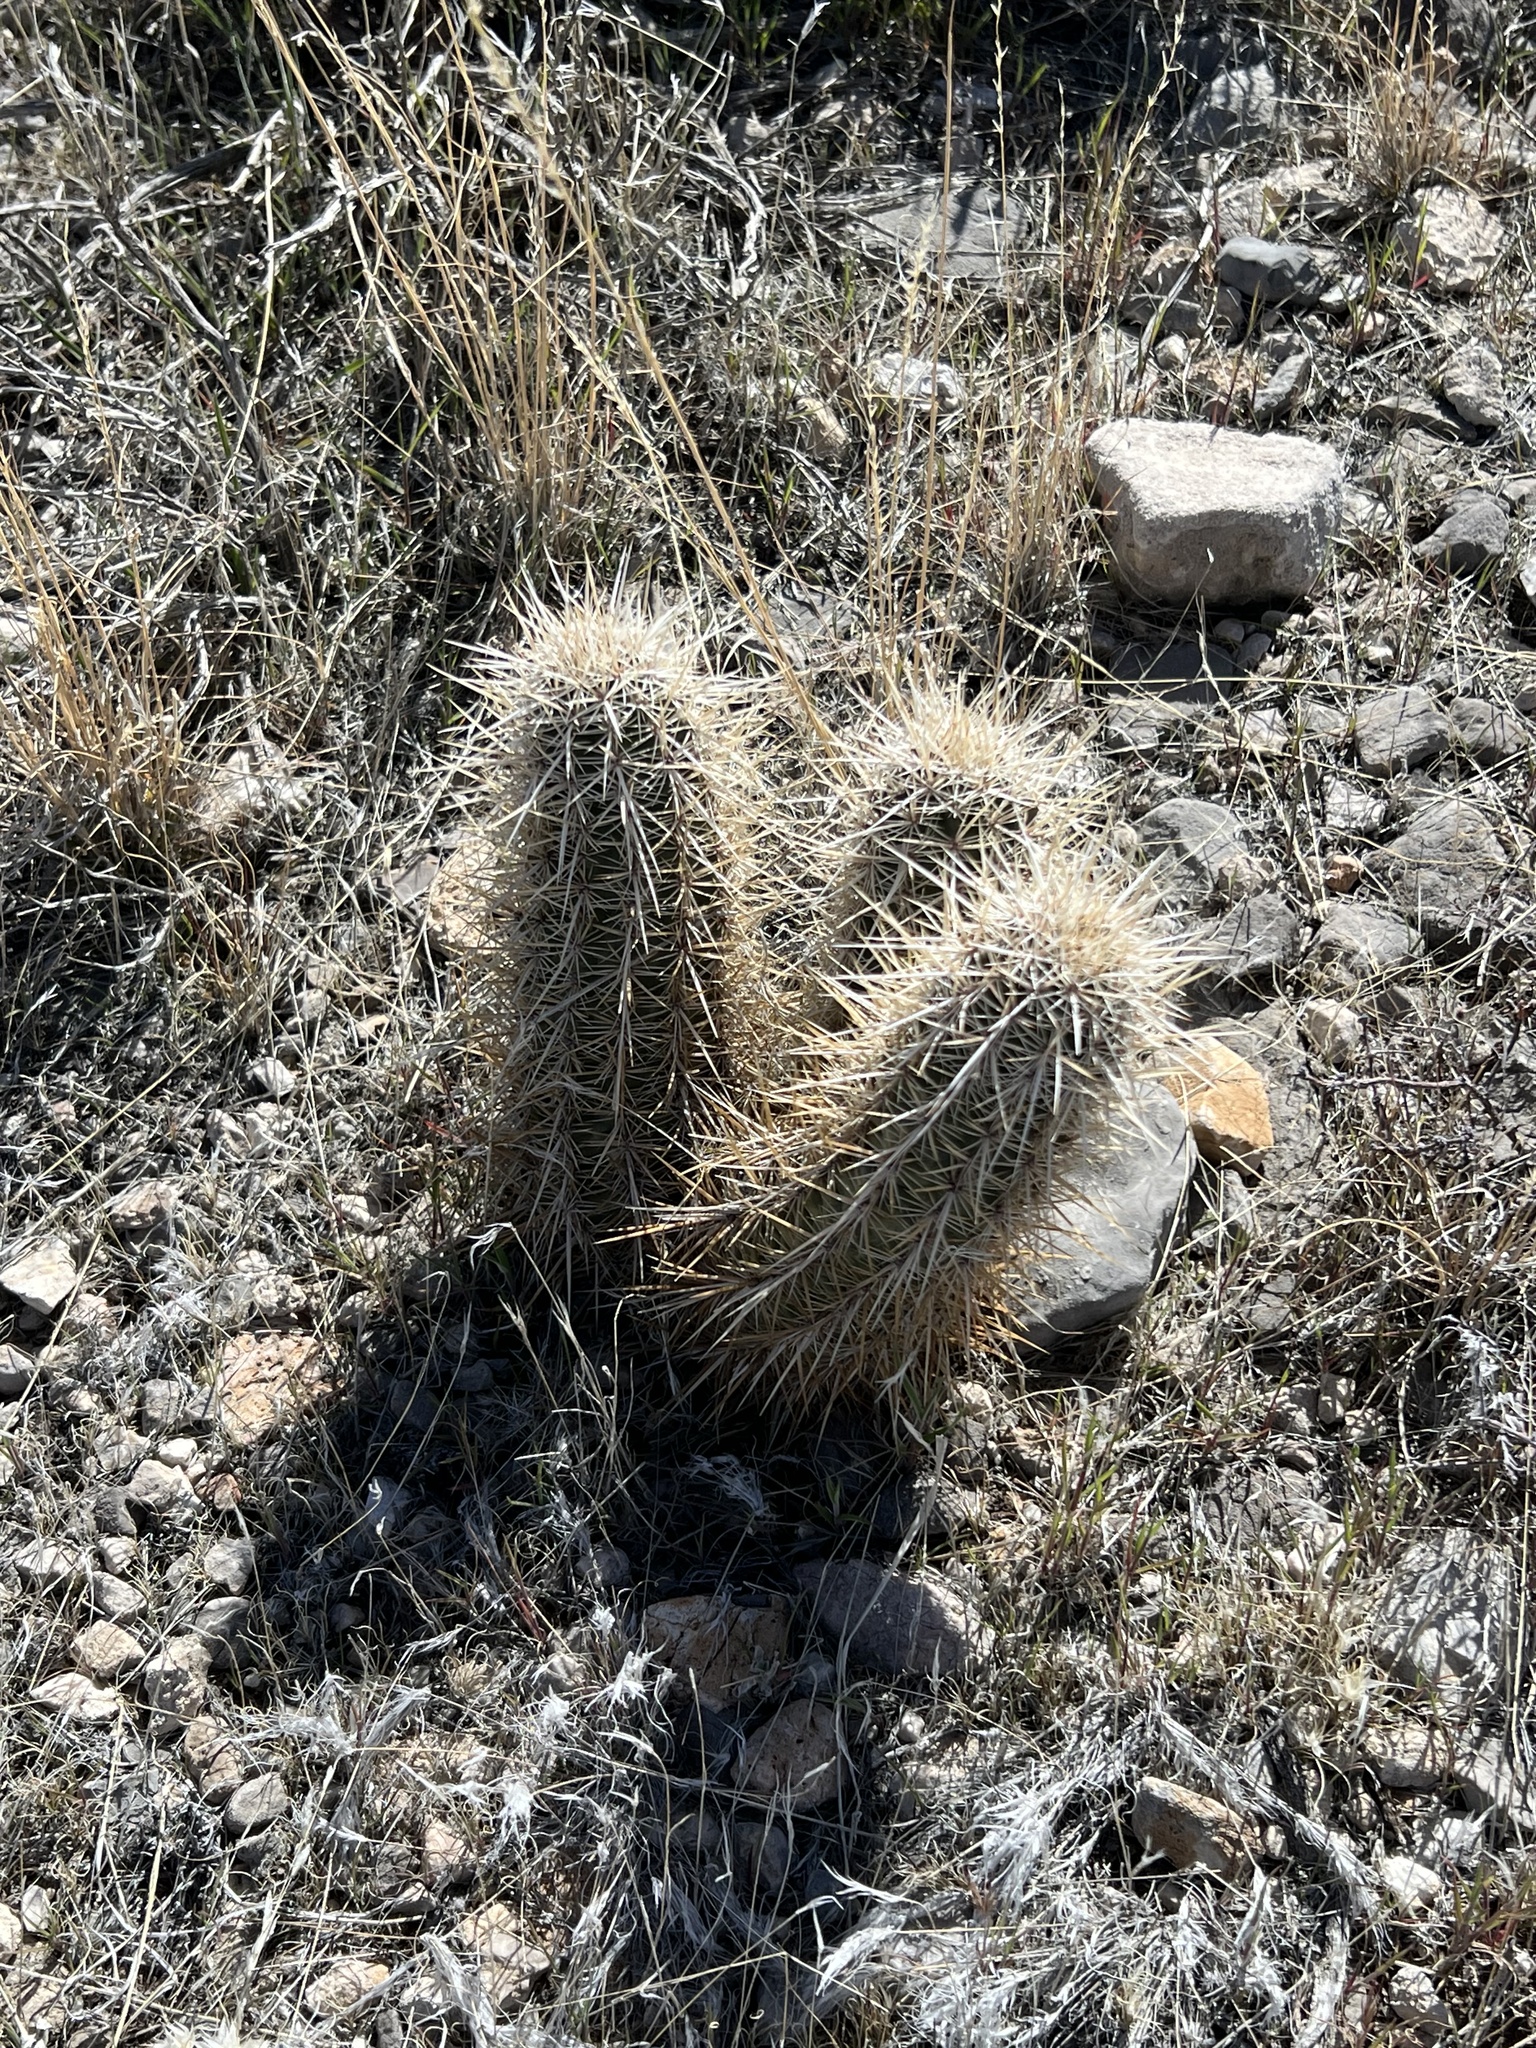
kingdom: Plantae
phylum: Tracheophyta
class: Magnoliopsida
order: Caryophyllales
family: Cactaceae
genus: Echinocereus
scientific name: Echinocereus engelmannii
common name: Engelmann's hedgehog cactus
